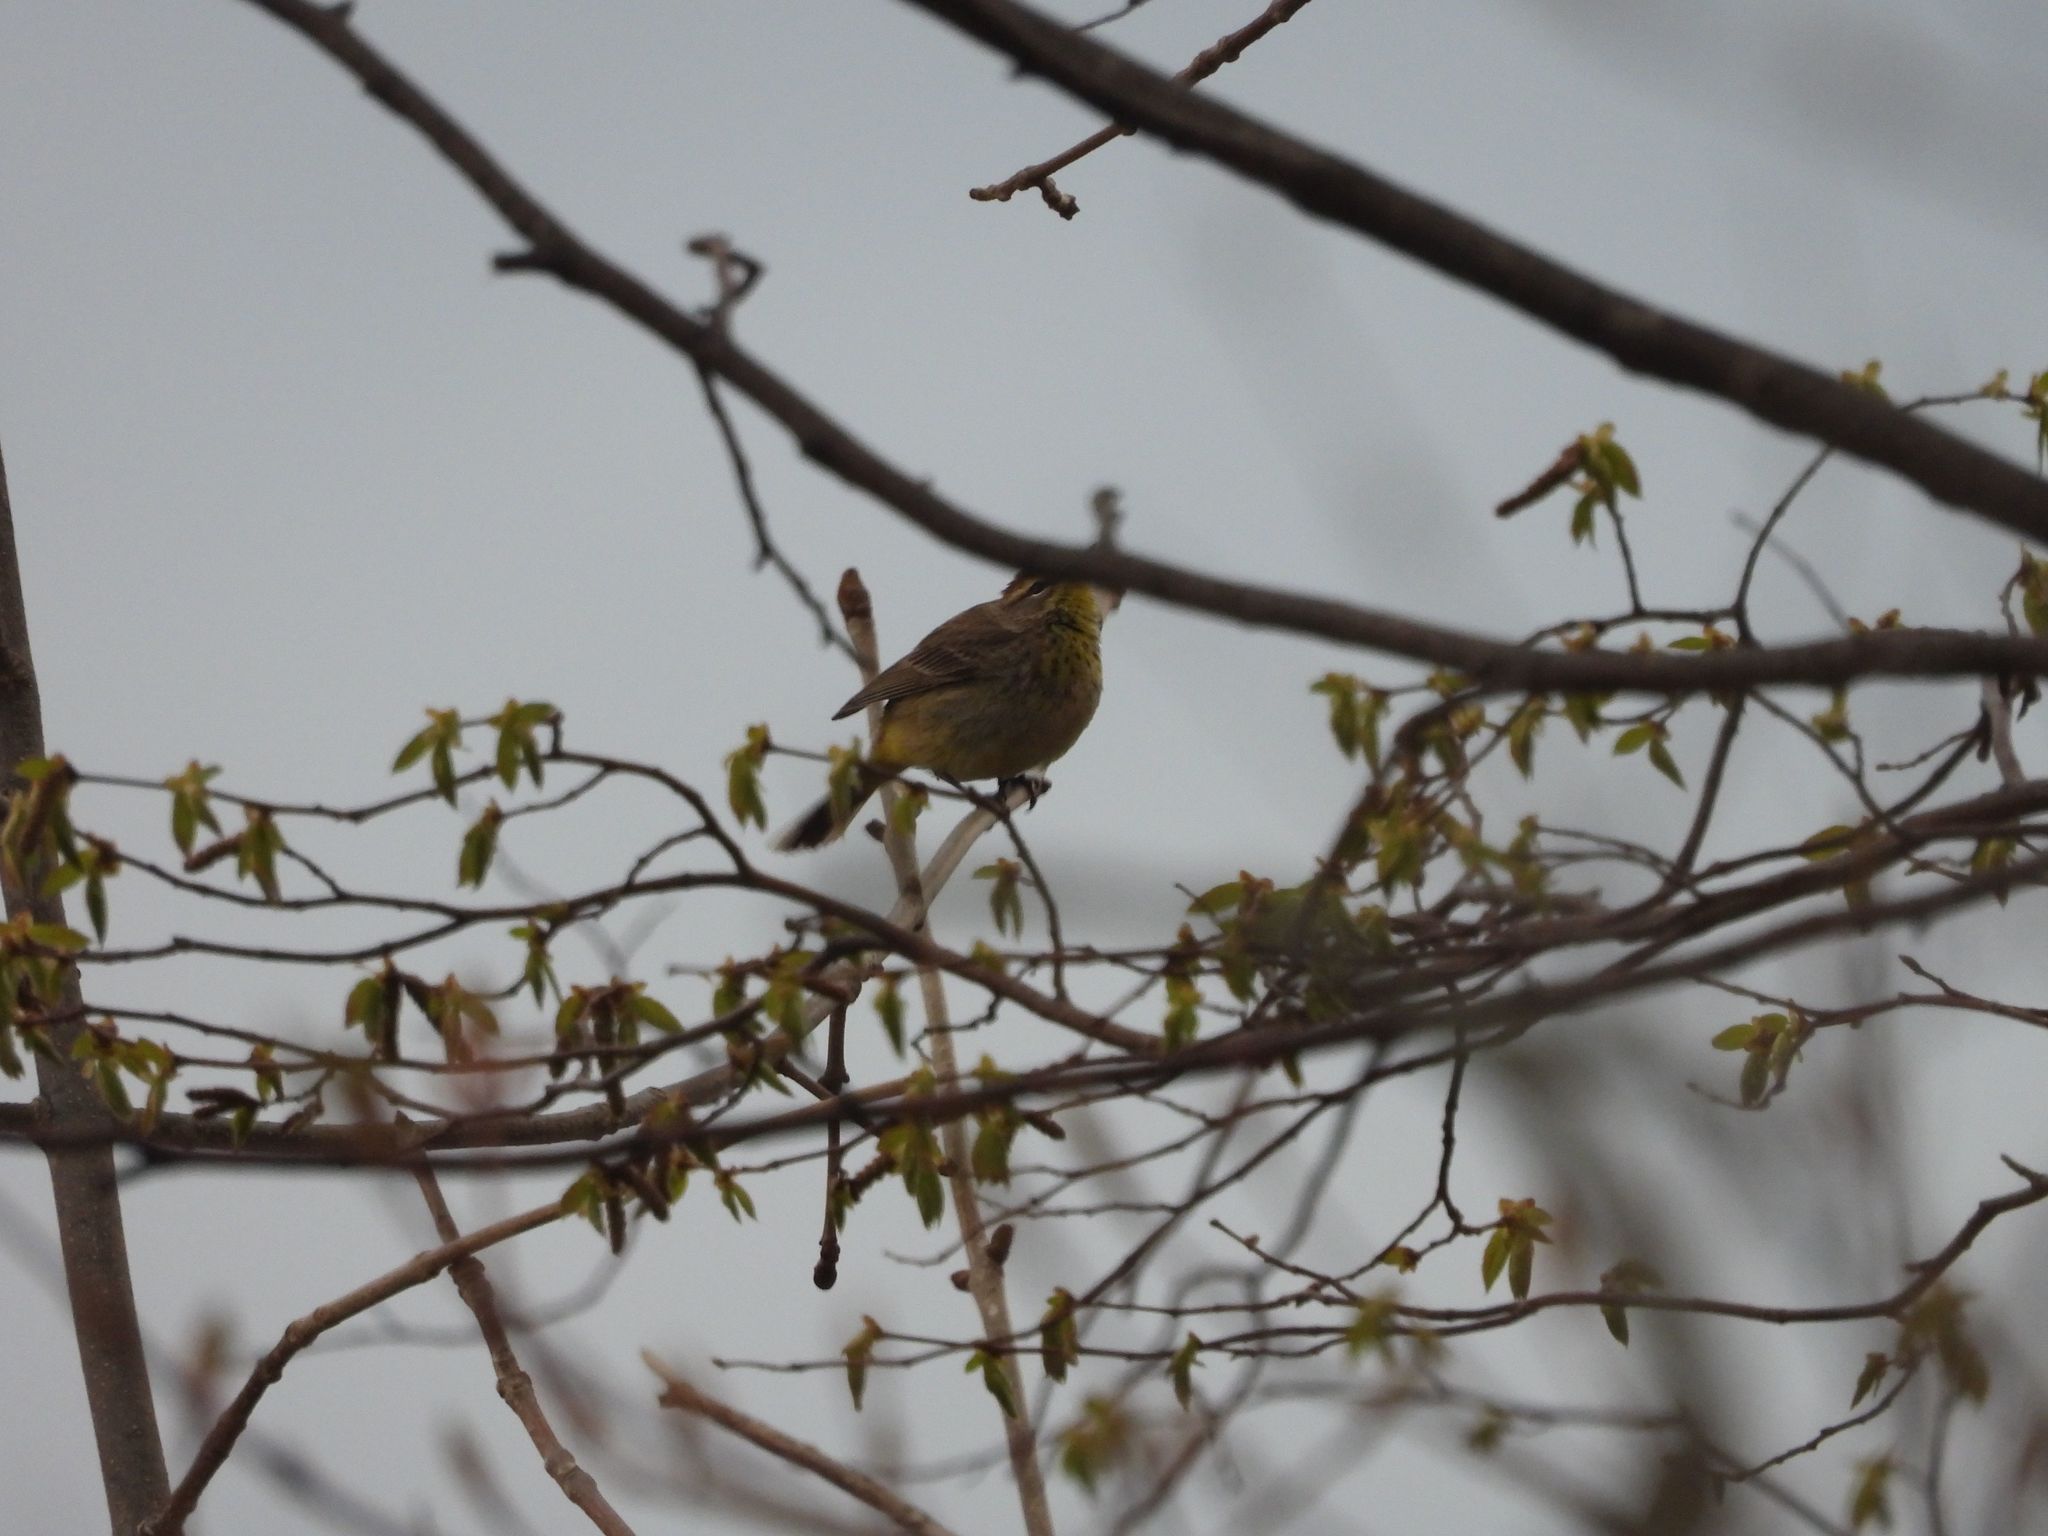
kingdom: Animalia
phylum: Chordata
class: Aves
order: Passeriformes
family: Parulidae
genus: Setophaga
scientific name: Setophaga palmarum
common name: Palm warbler
